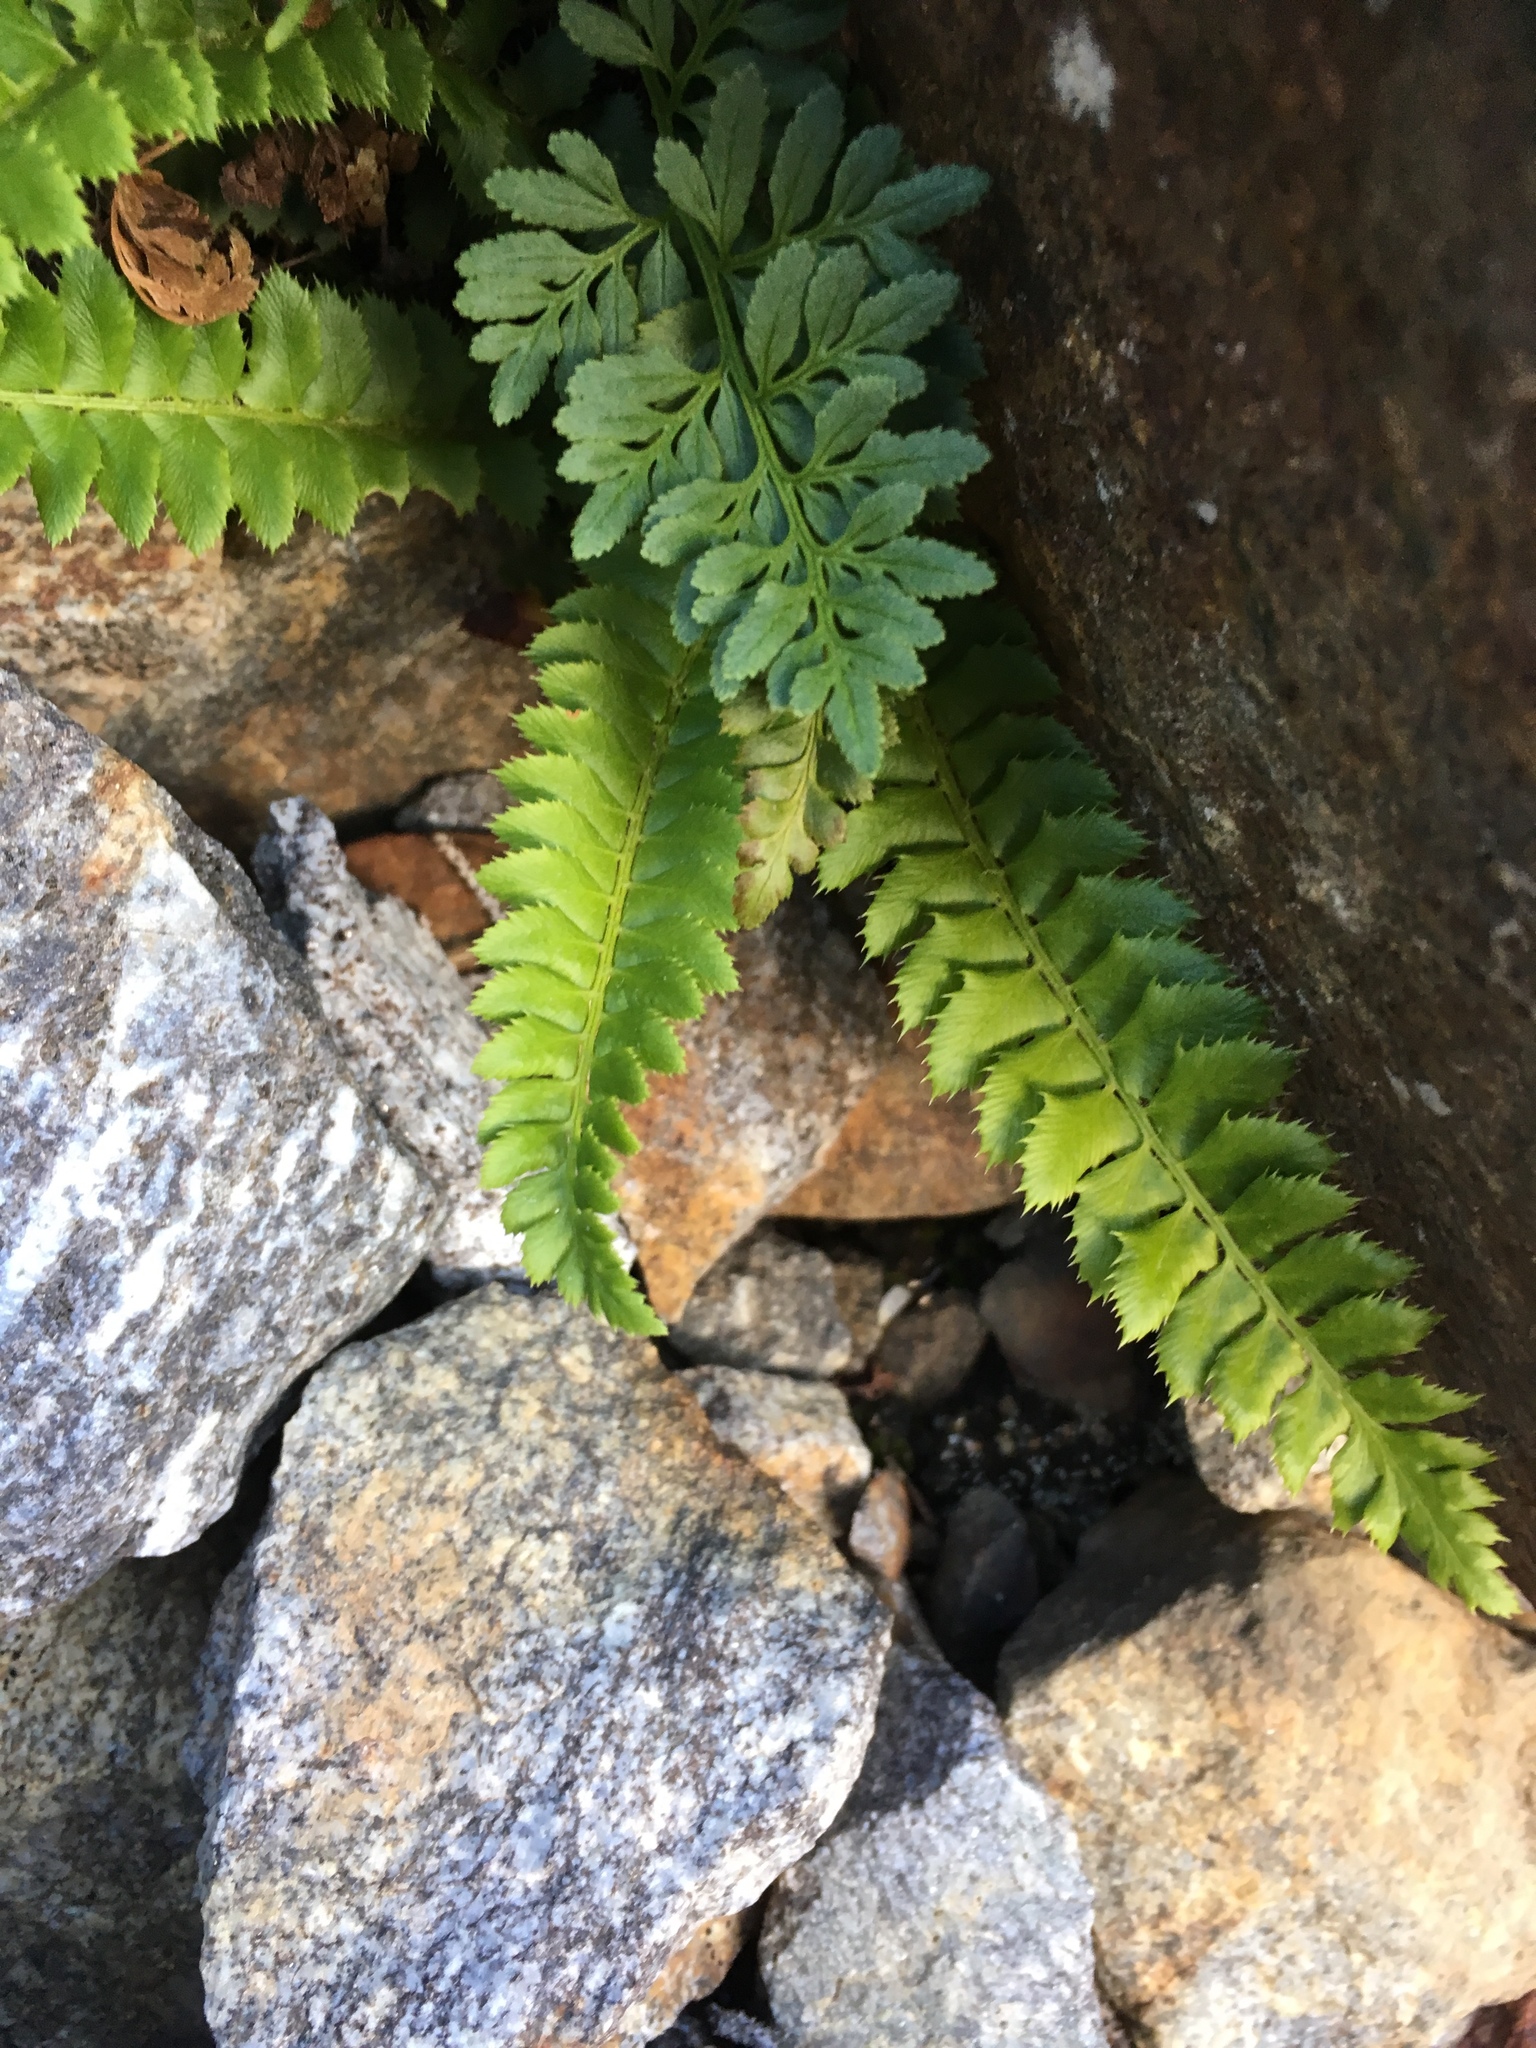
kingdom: Plantae
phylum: Tracheophyta
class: Polypodiopsida
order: Polypodiales
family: Dryopteridaceae
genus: Polystichum
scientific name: Polystichum lonchitis
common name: Holly fern
